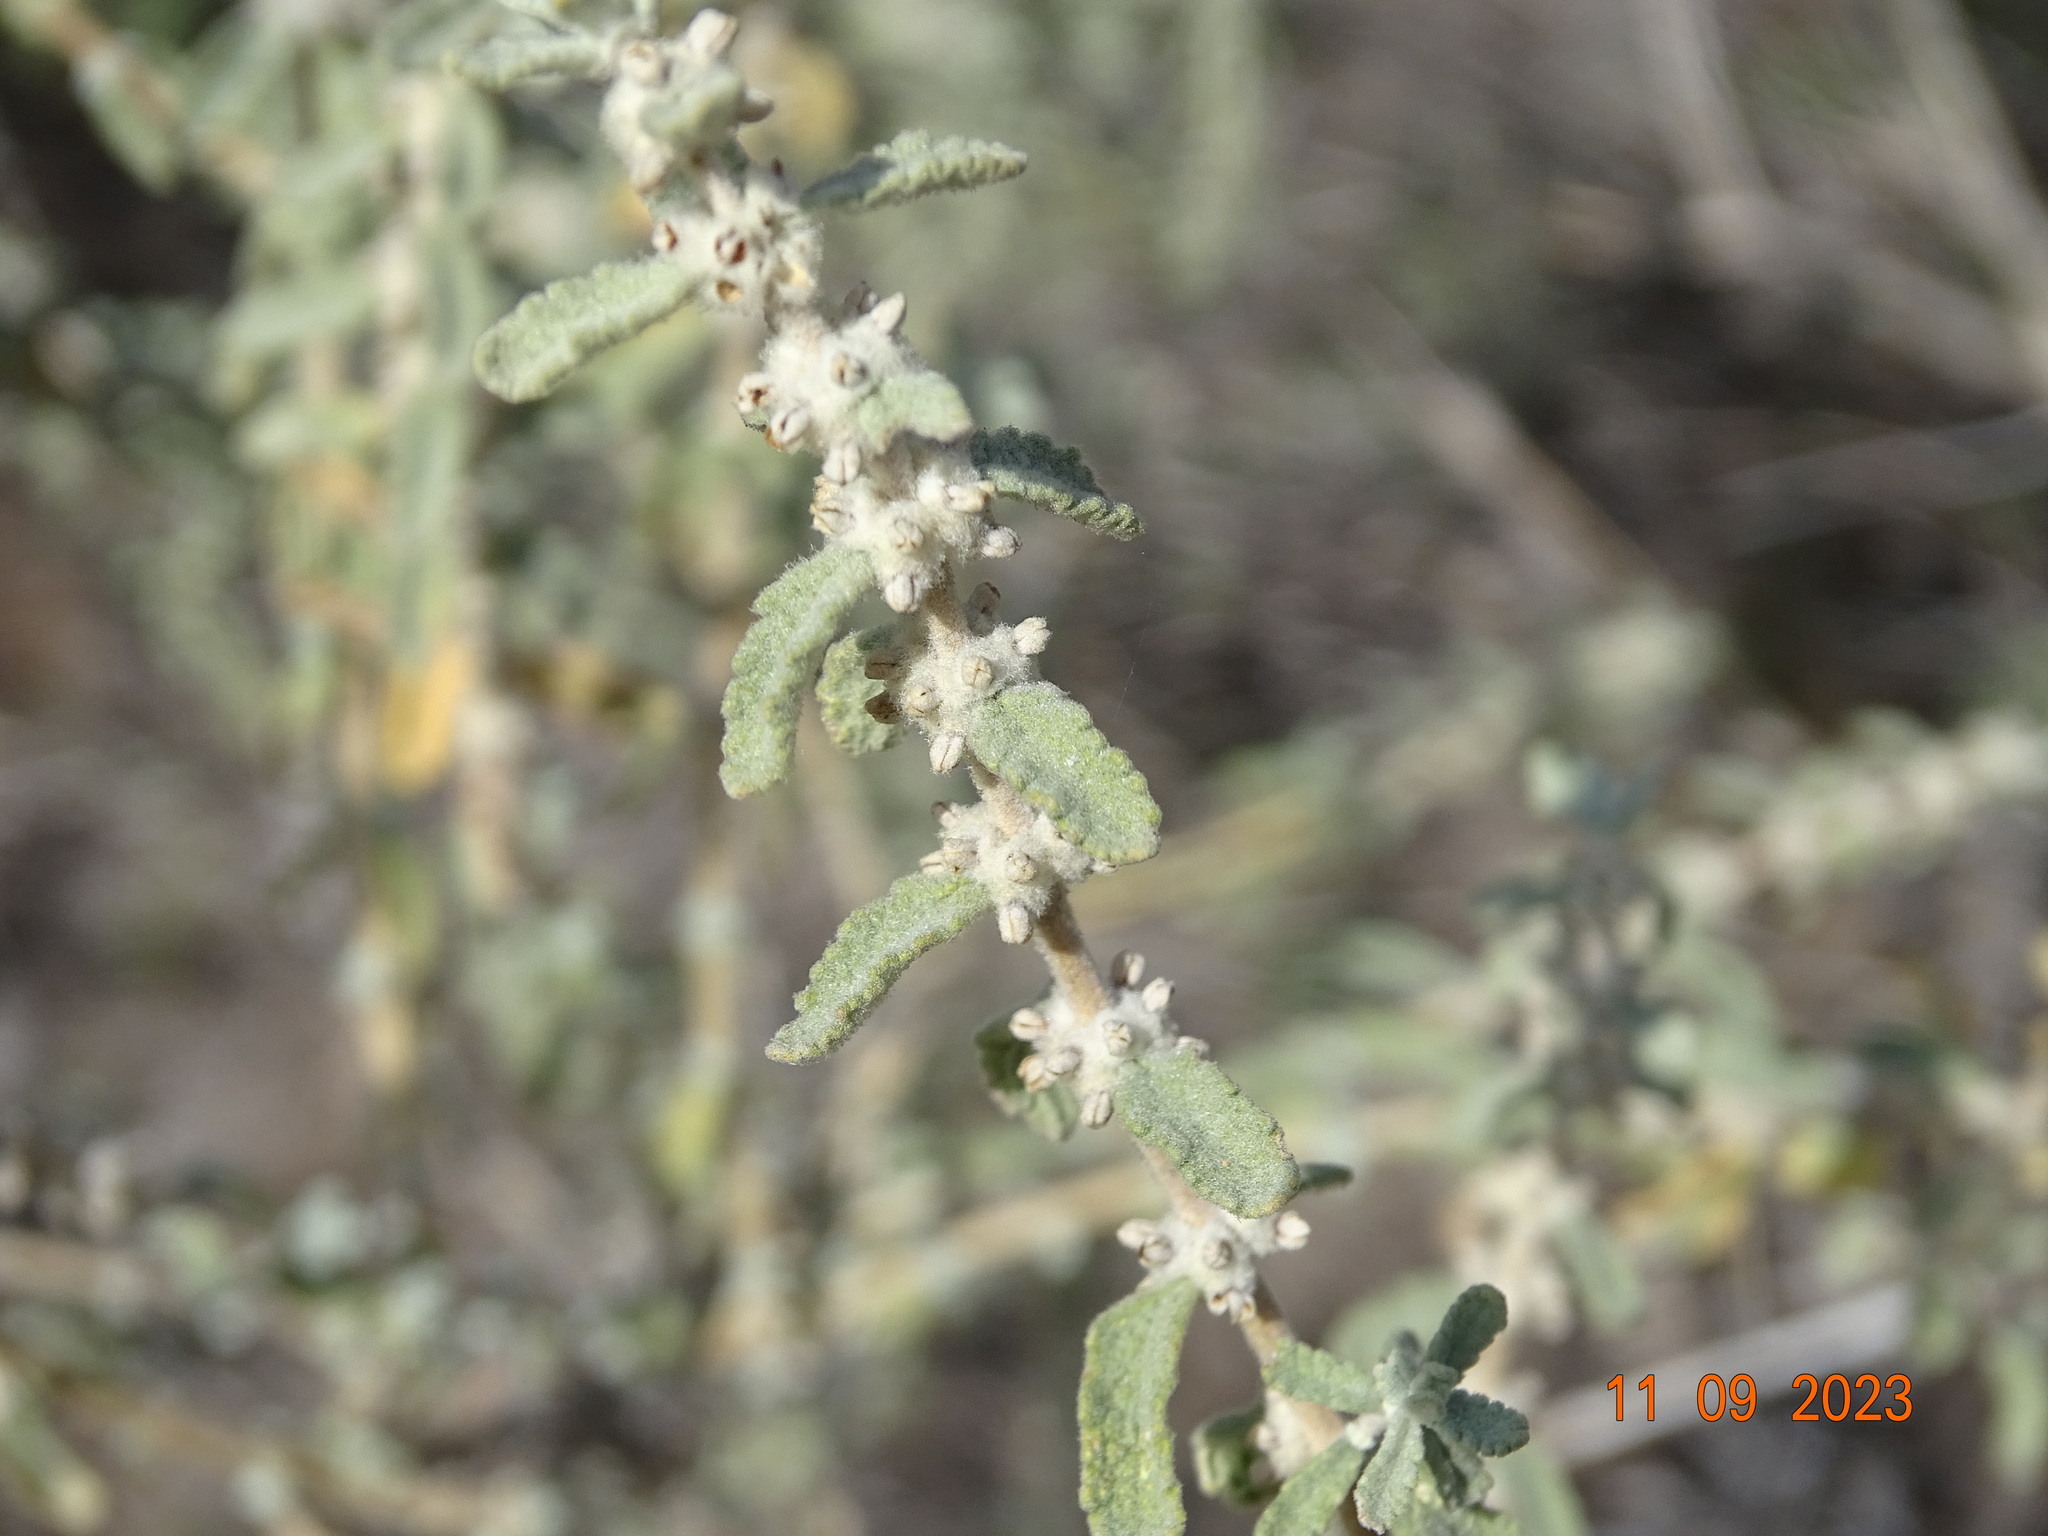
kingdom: Plantae
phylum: Tracheophyta
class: Magnoliopsida
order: Lamiales
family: Scrophulariaceae
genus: Buddleja
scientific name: Buddleja scordioides
